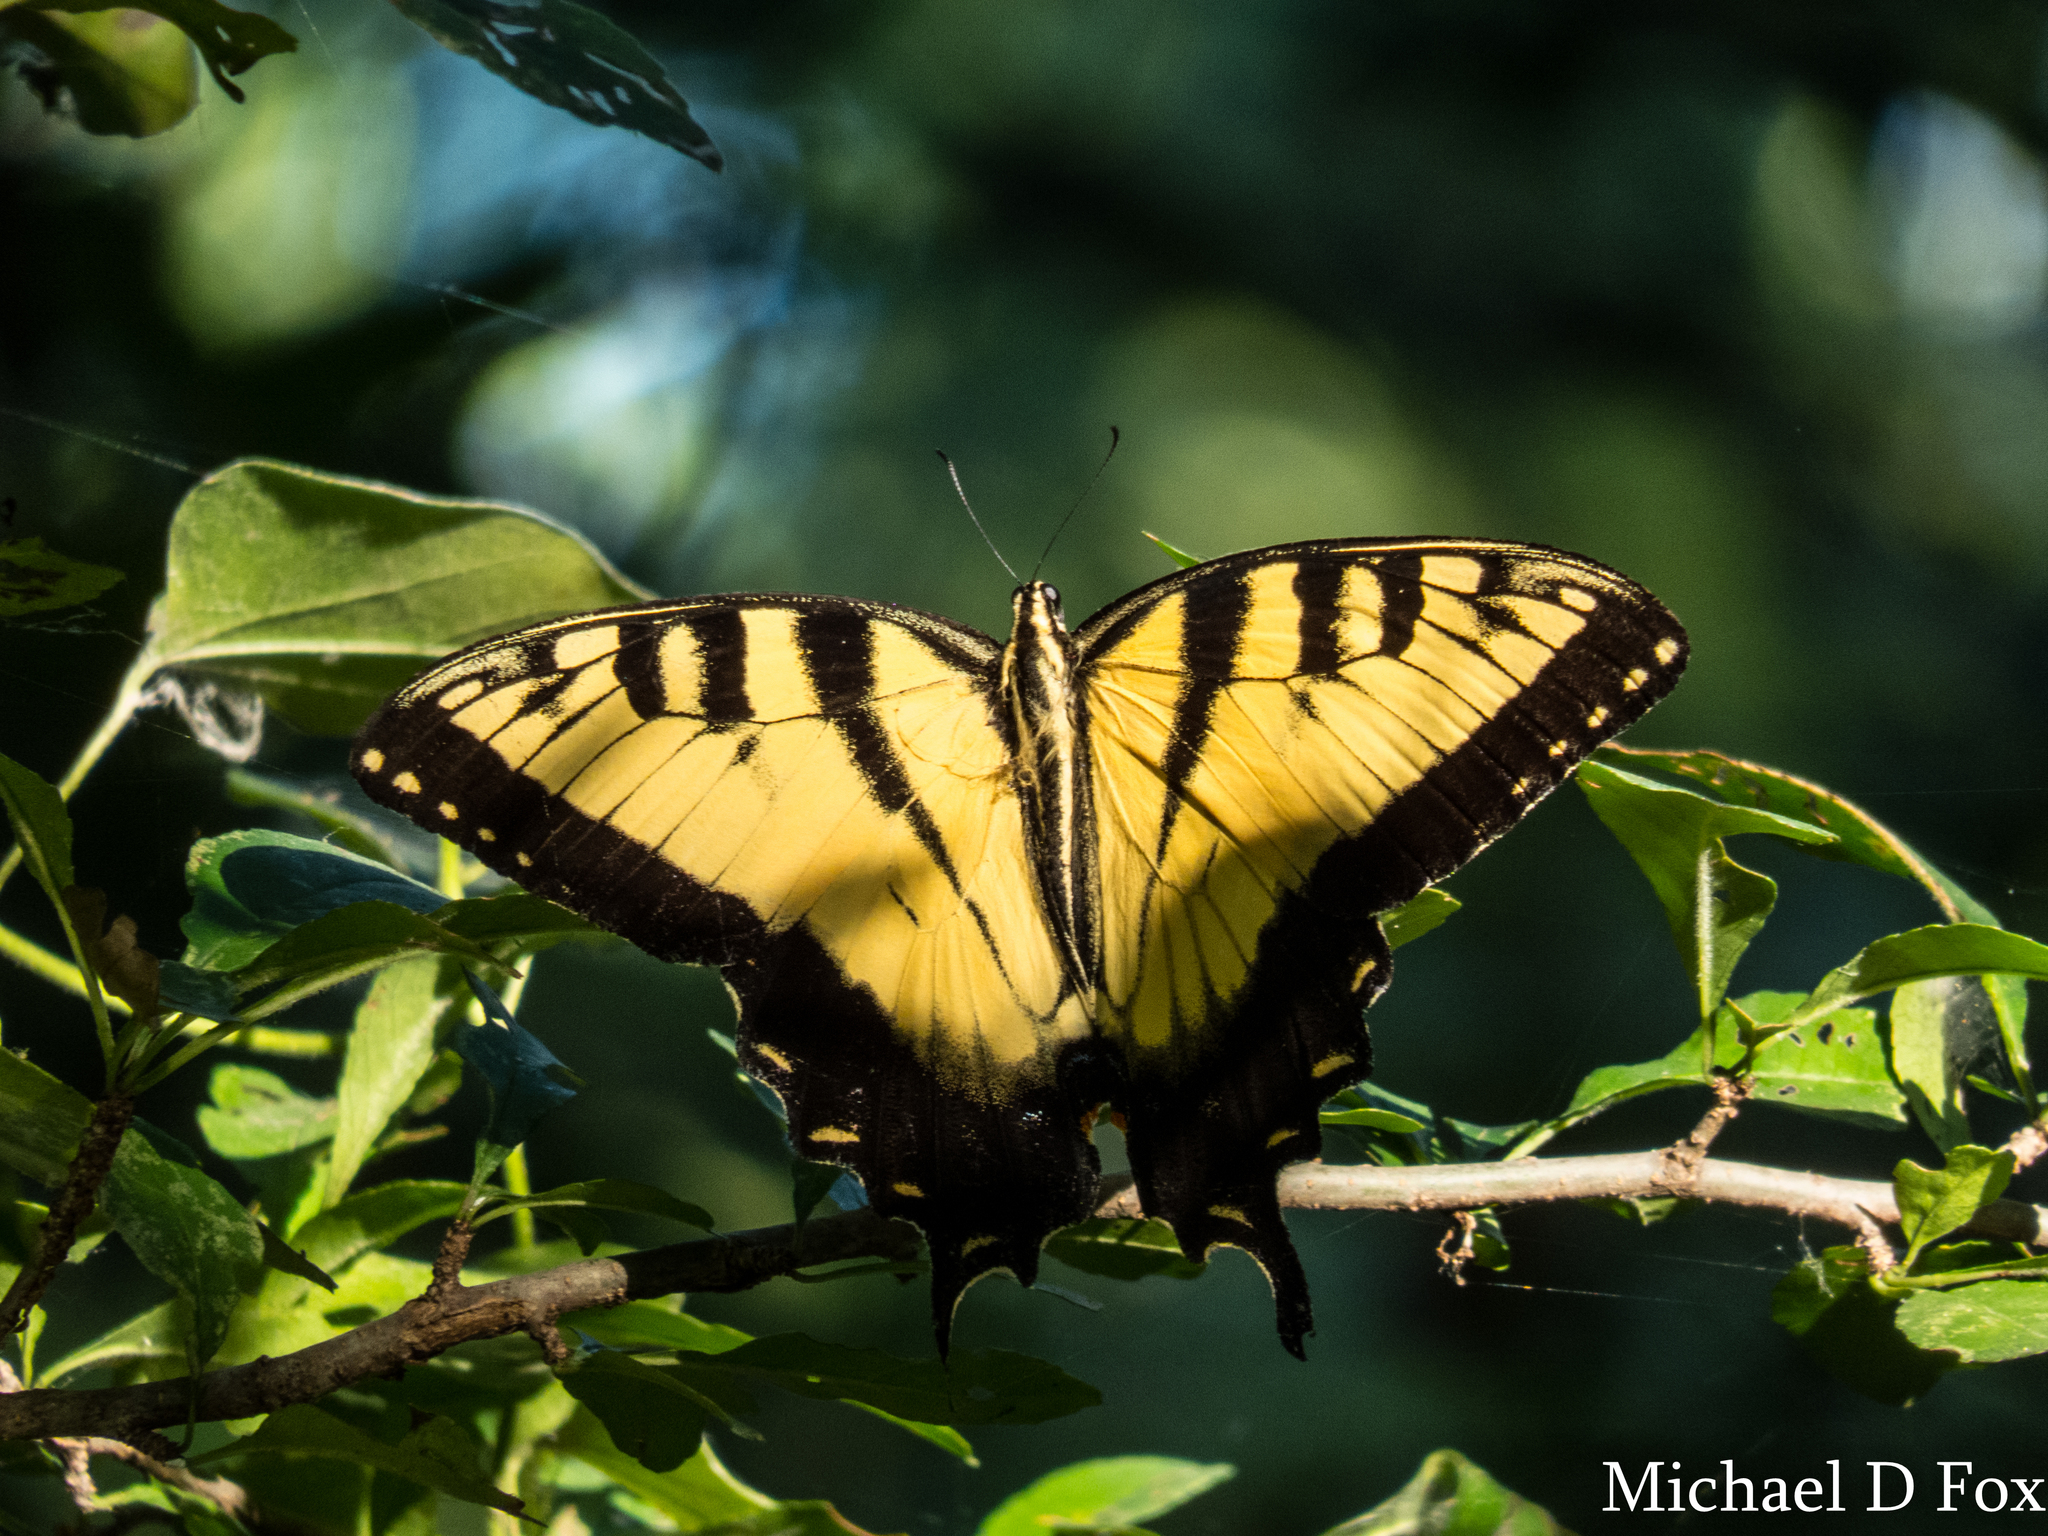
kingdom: Animalia
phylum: Arthropoda
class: Insecta
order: Lepidoptera
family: Papilionidae
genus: Papilio
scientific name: Papilio glaucus
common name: Tiger swallowtail
